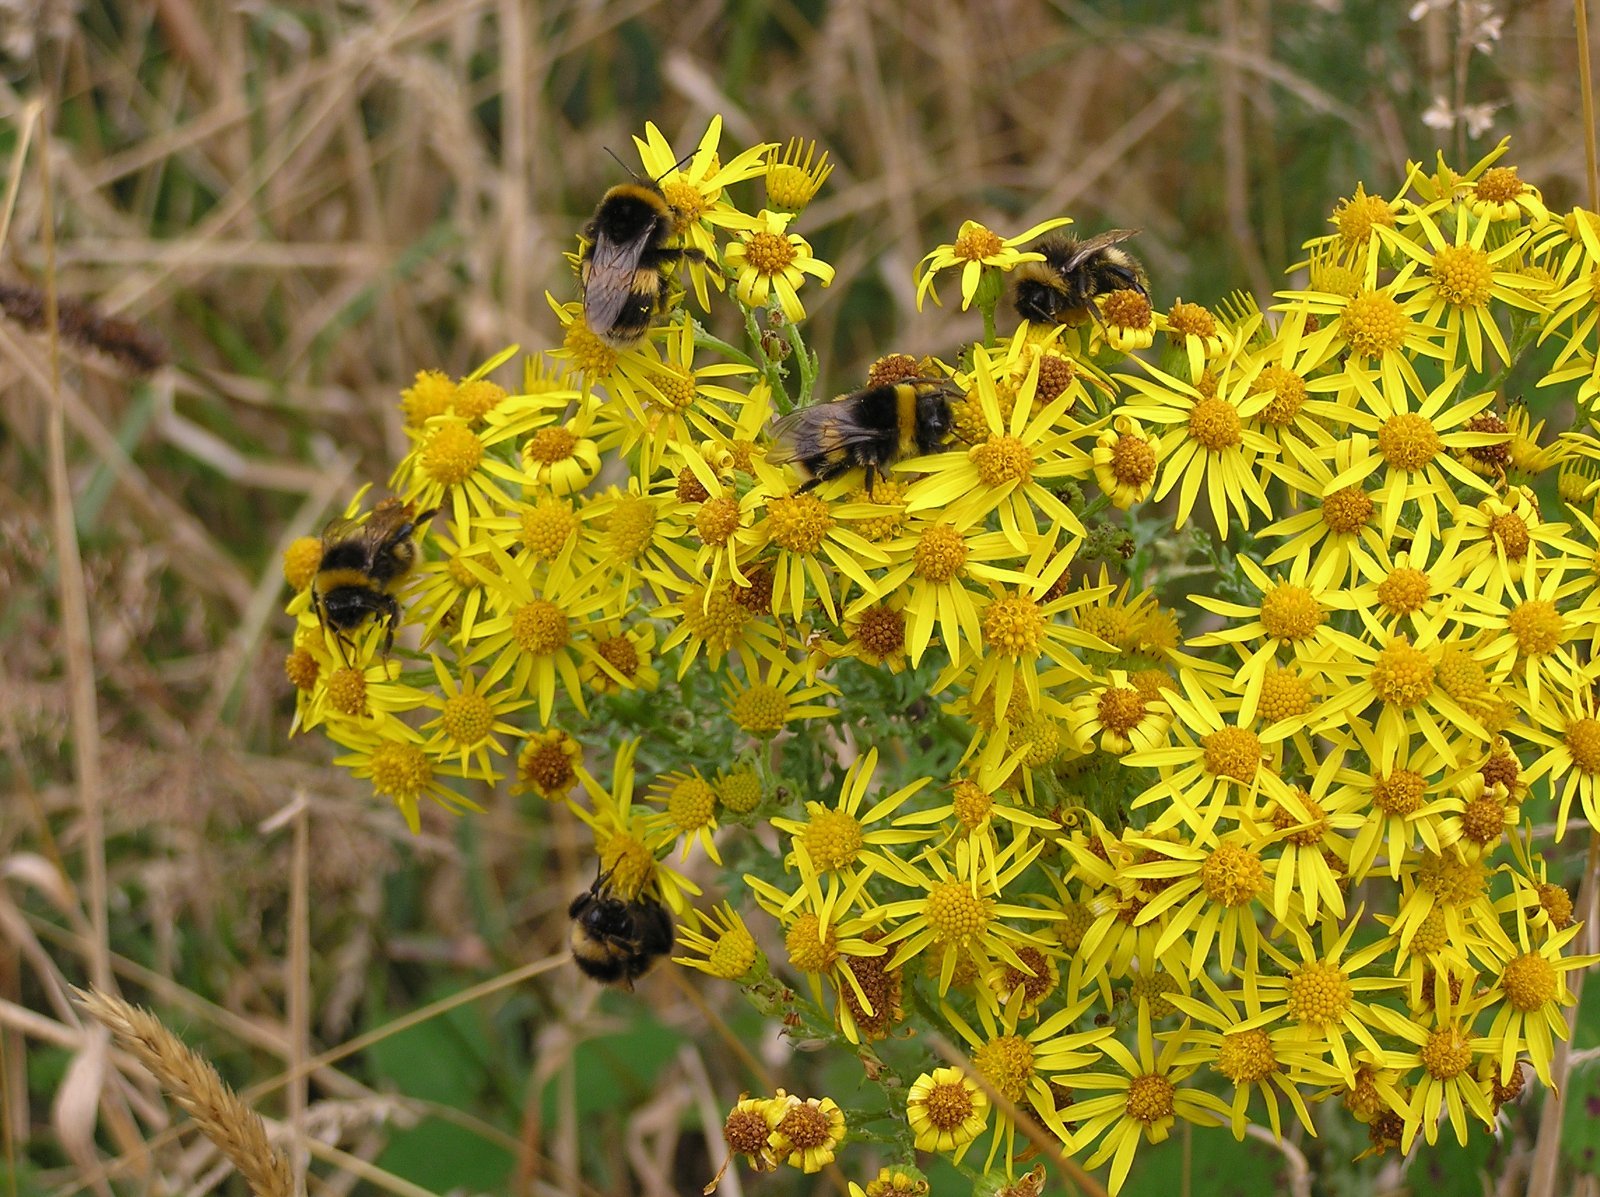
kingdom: Animalia
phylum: Arthropoda
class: Insecta
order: Hymenoptera
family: Apidae
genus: Bombus
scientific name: Bombus terrestris
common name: Buff-tailed bumblebee
